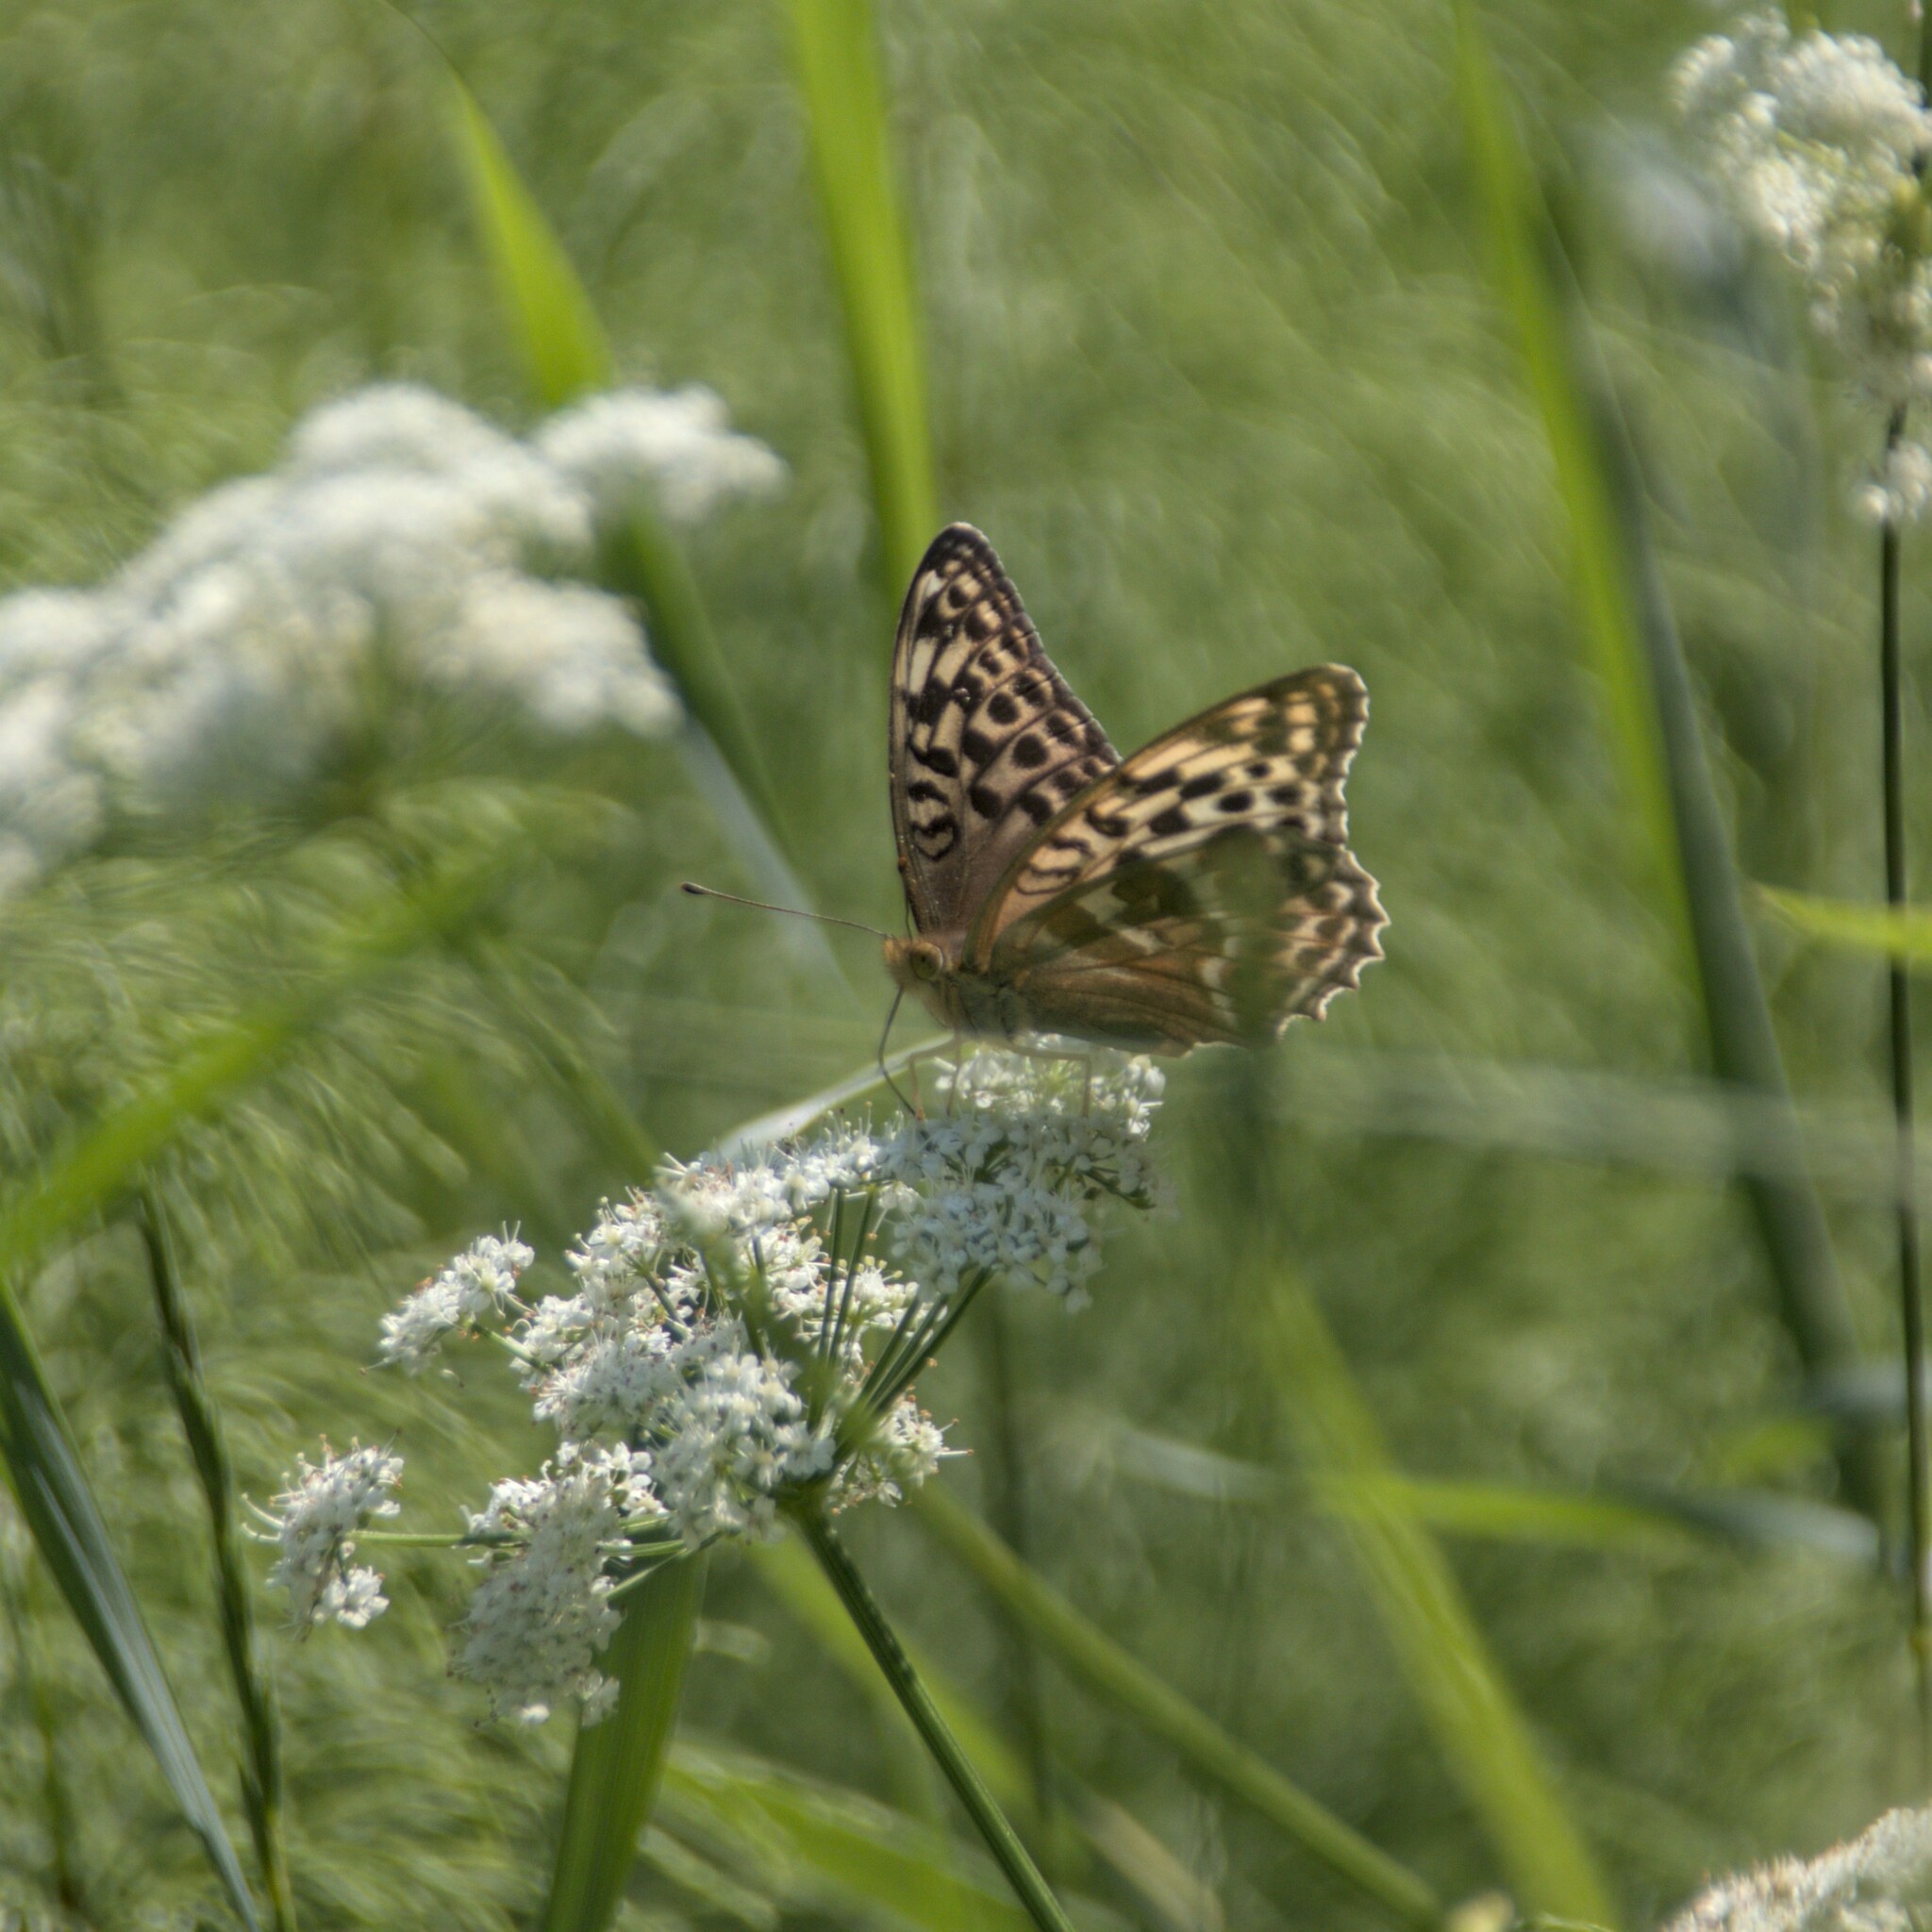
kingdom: Animalia
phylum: Arthropoda
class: Insecta
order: Lepidoptera
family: Nymphalidae
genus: Argynnis
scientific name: Argynnis paphia
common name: Silver-washed fritillary
